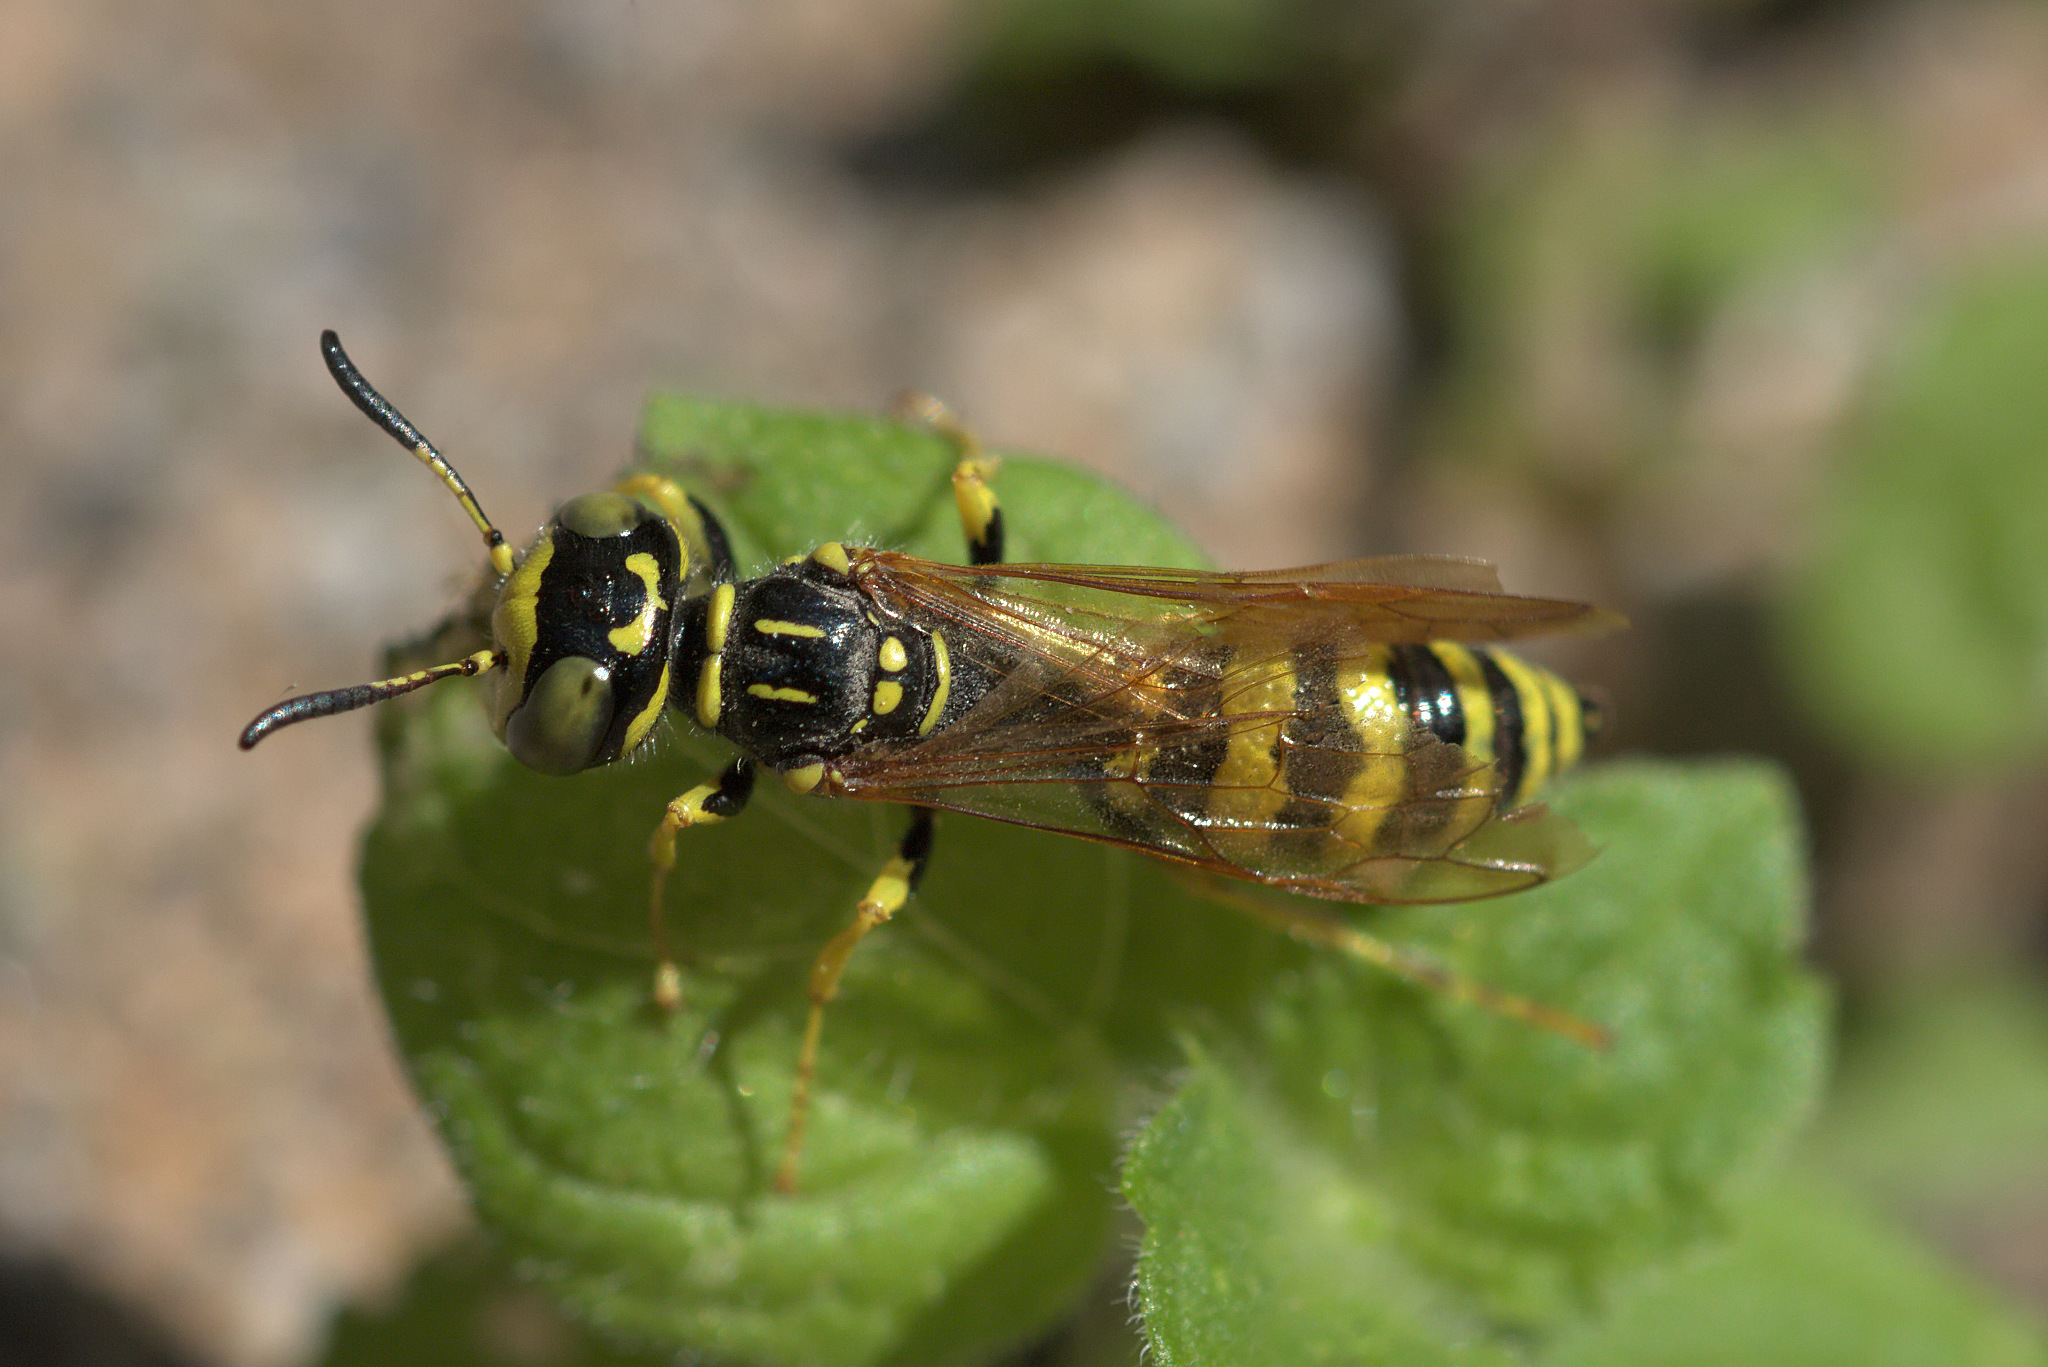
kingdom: Animalia
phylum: Arthropoda
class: Insecta
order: Hymenoptera
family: Crabronidae
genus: Philanthus
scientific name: Philanthus crabroniformis
